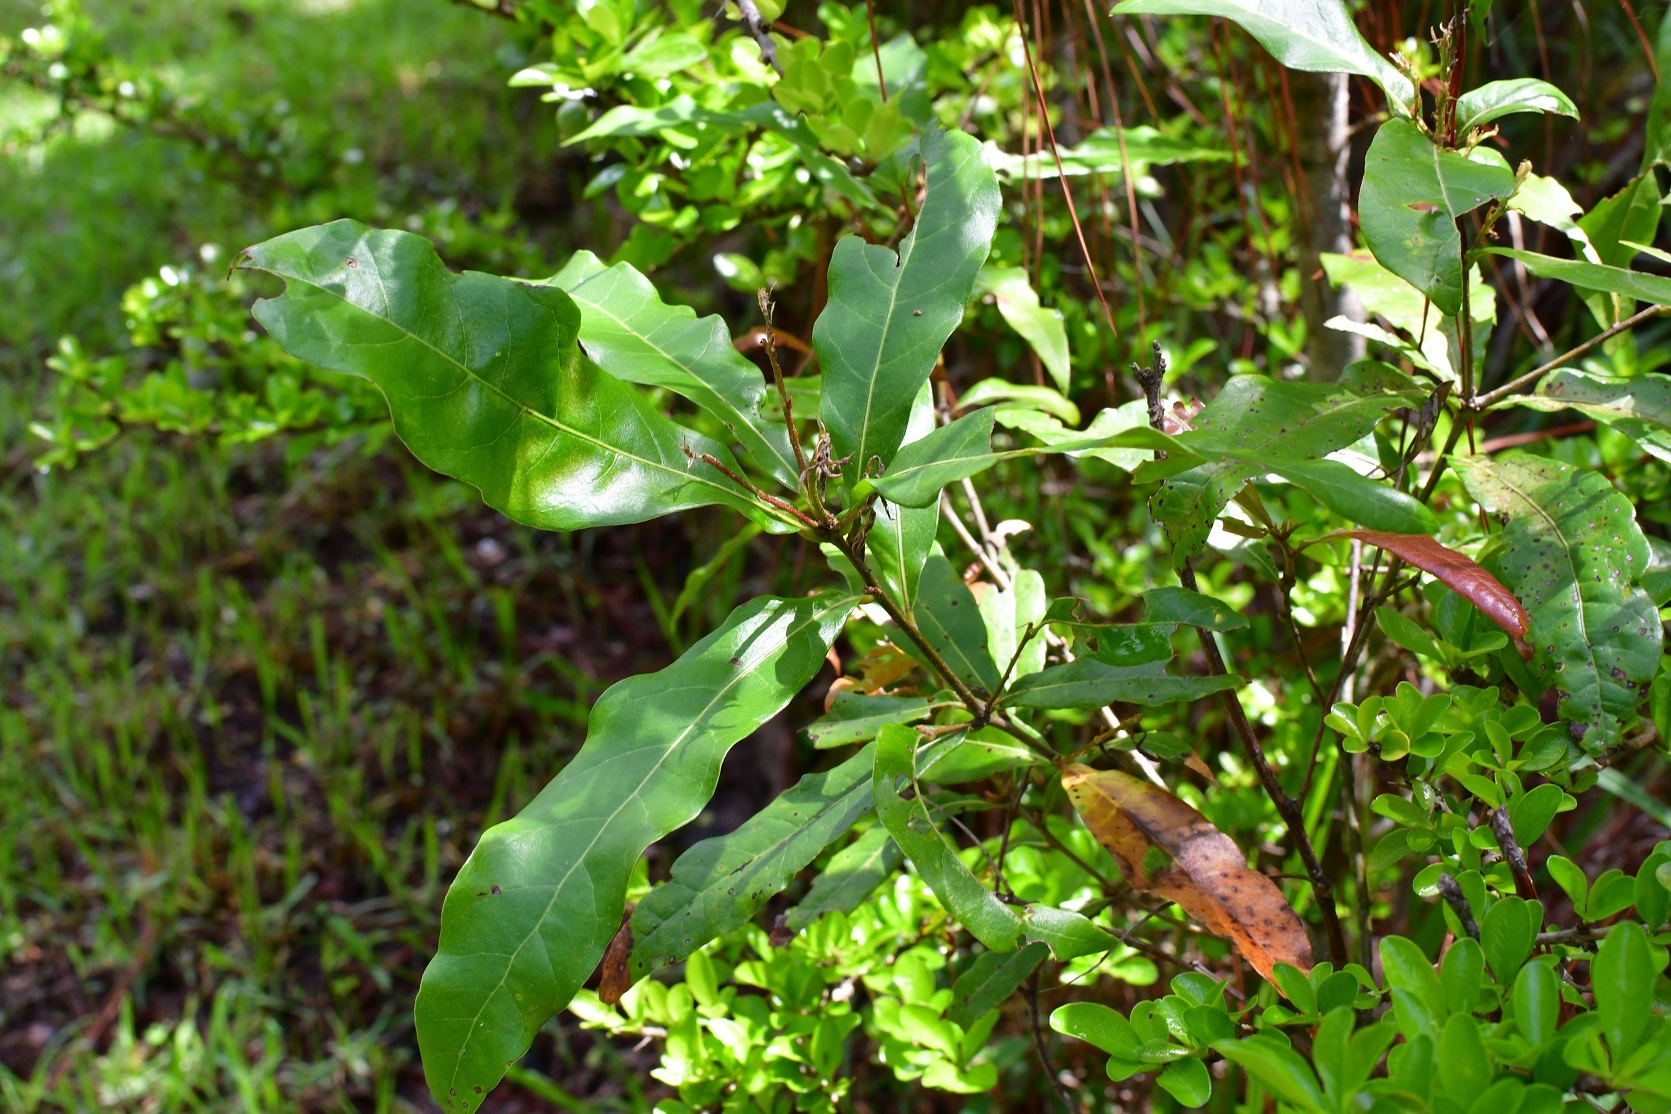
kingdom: Plantae
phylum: Tracheophyta
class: Magnoliopsida
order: Fagales
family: Fagaceae
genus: Quercus
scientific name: Quercus sapotifolia
